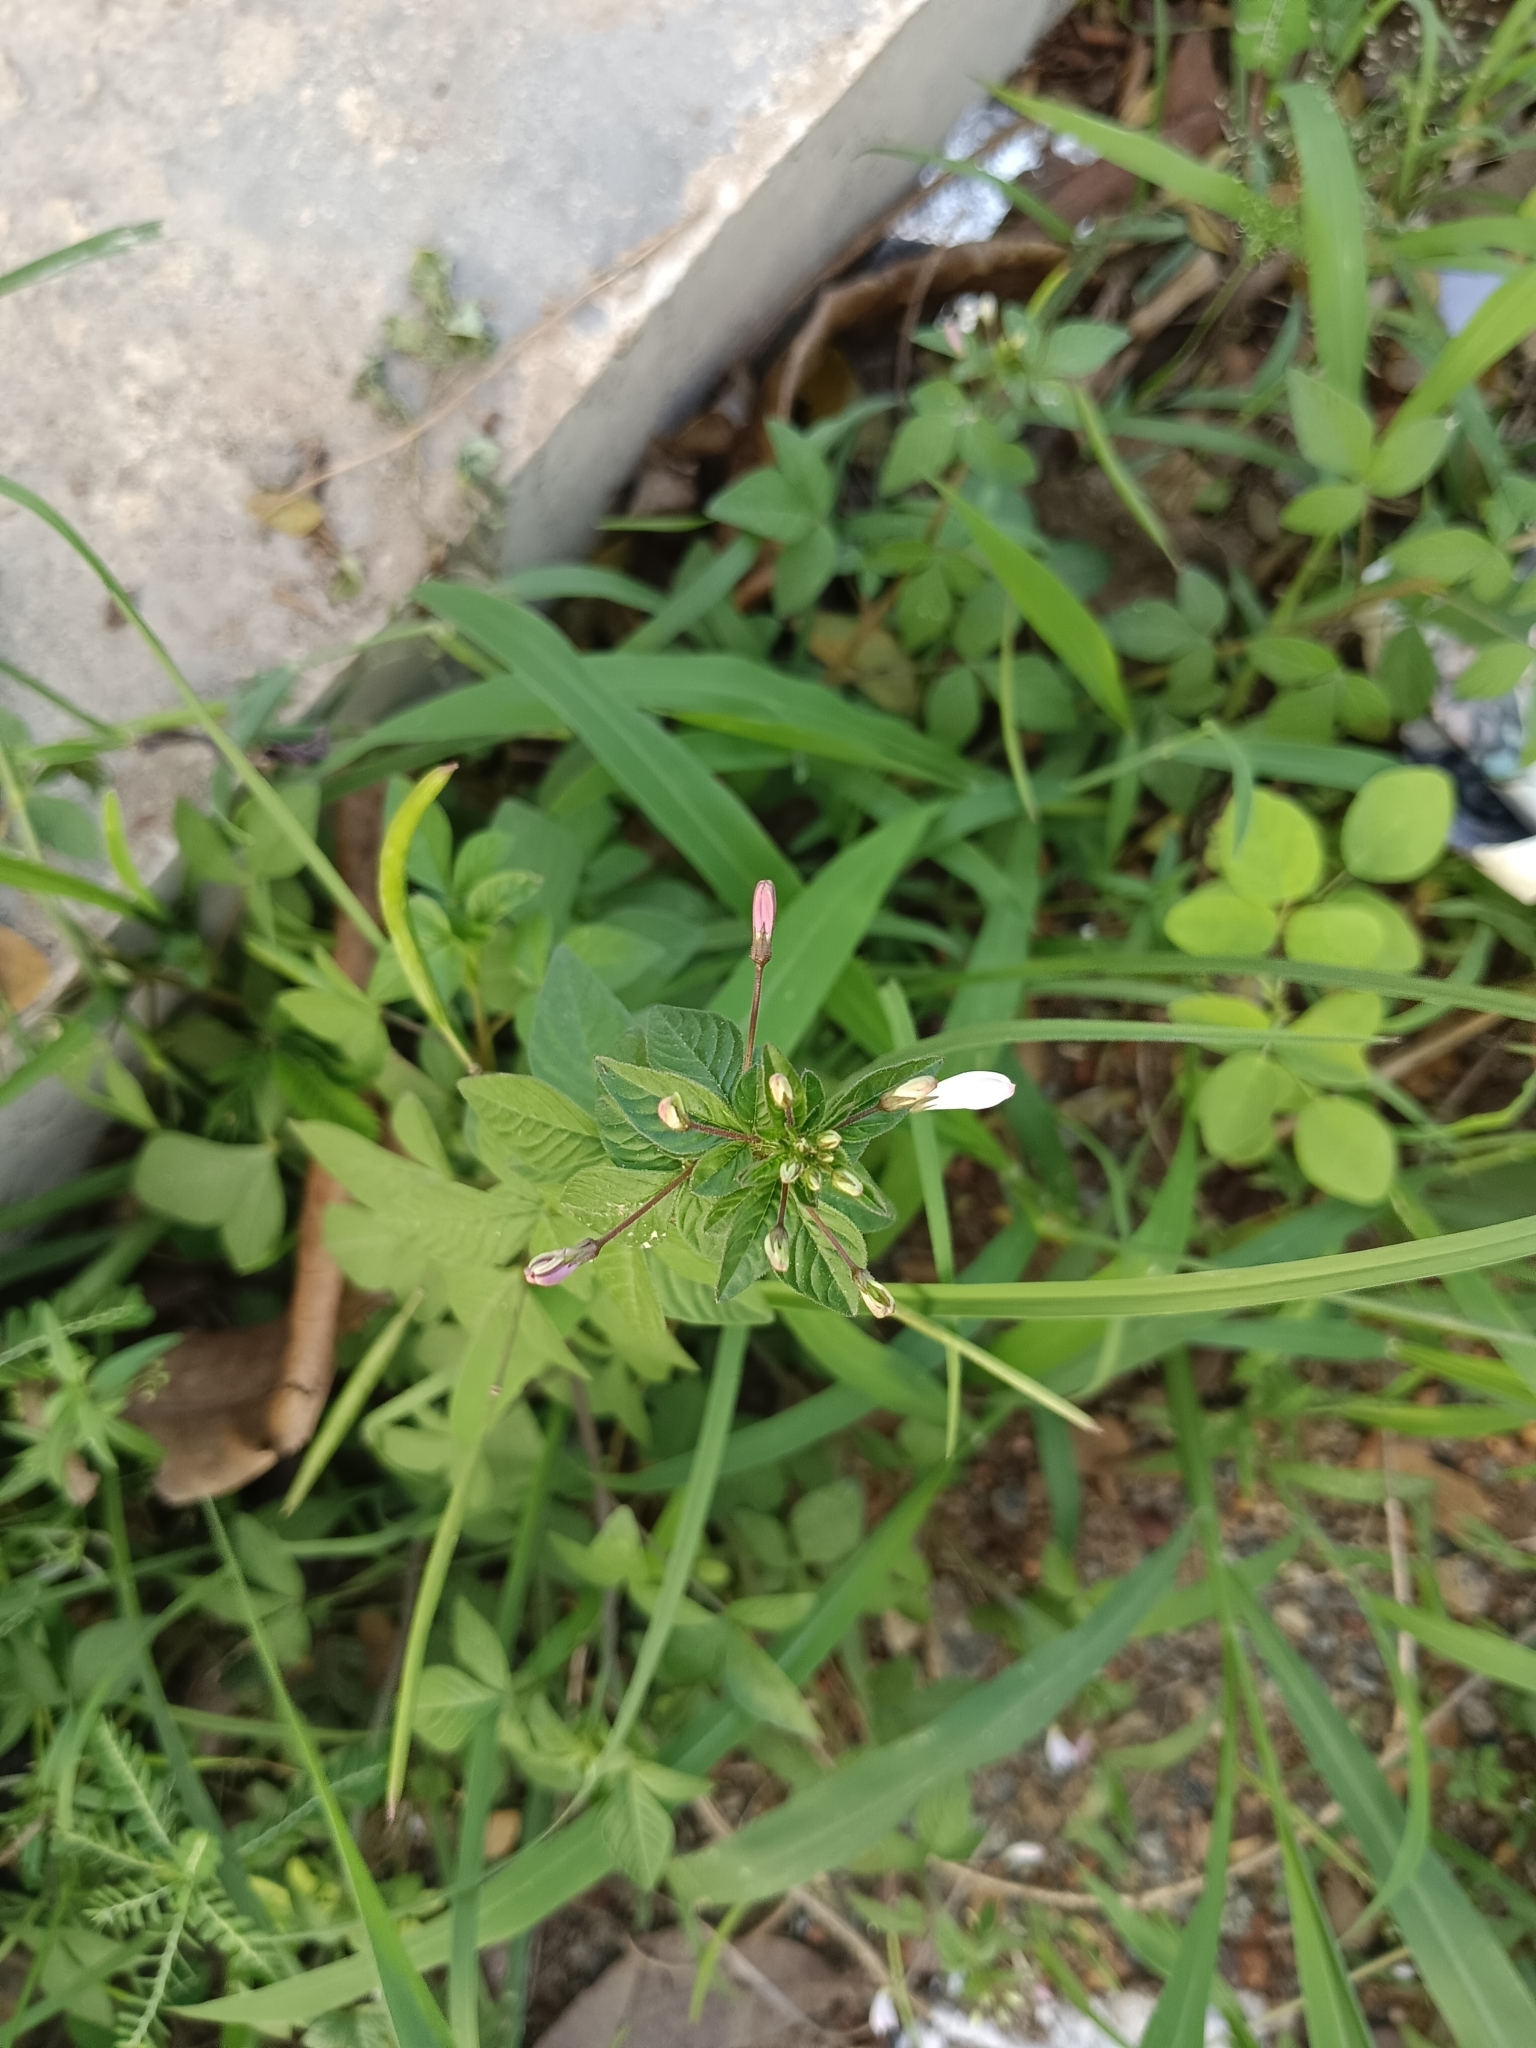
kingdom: Plantae
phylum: Tracheophyta
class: Magnoliopsida
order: Brassicales
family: Cleomaceae
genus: Sieruela
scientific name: Sieruela rutidosperma
